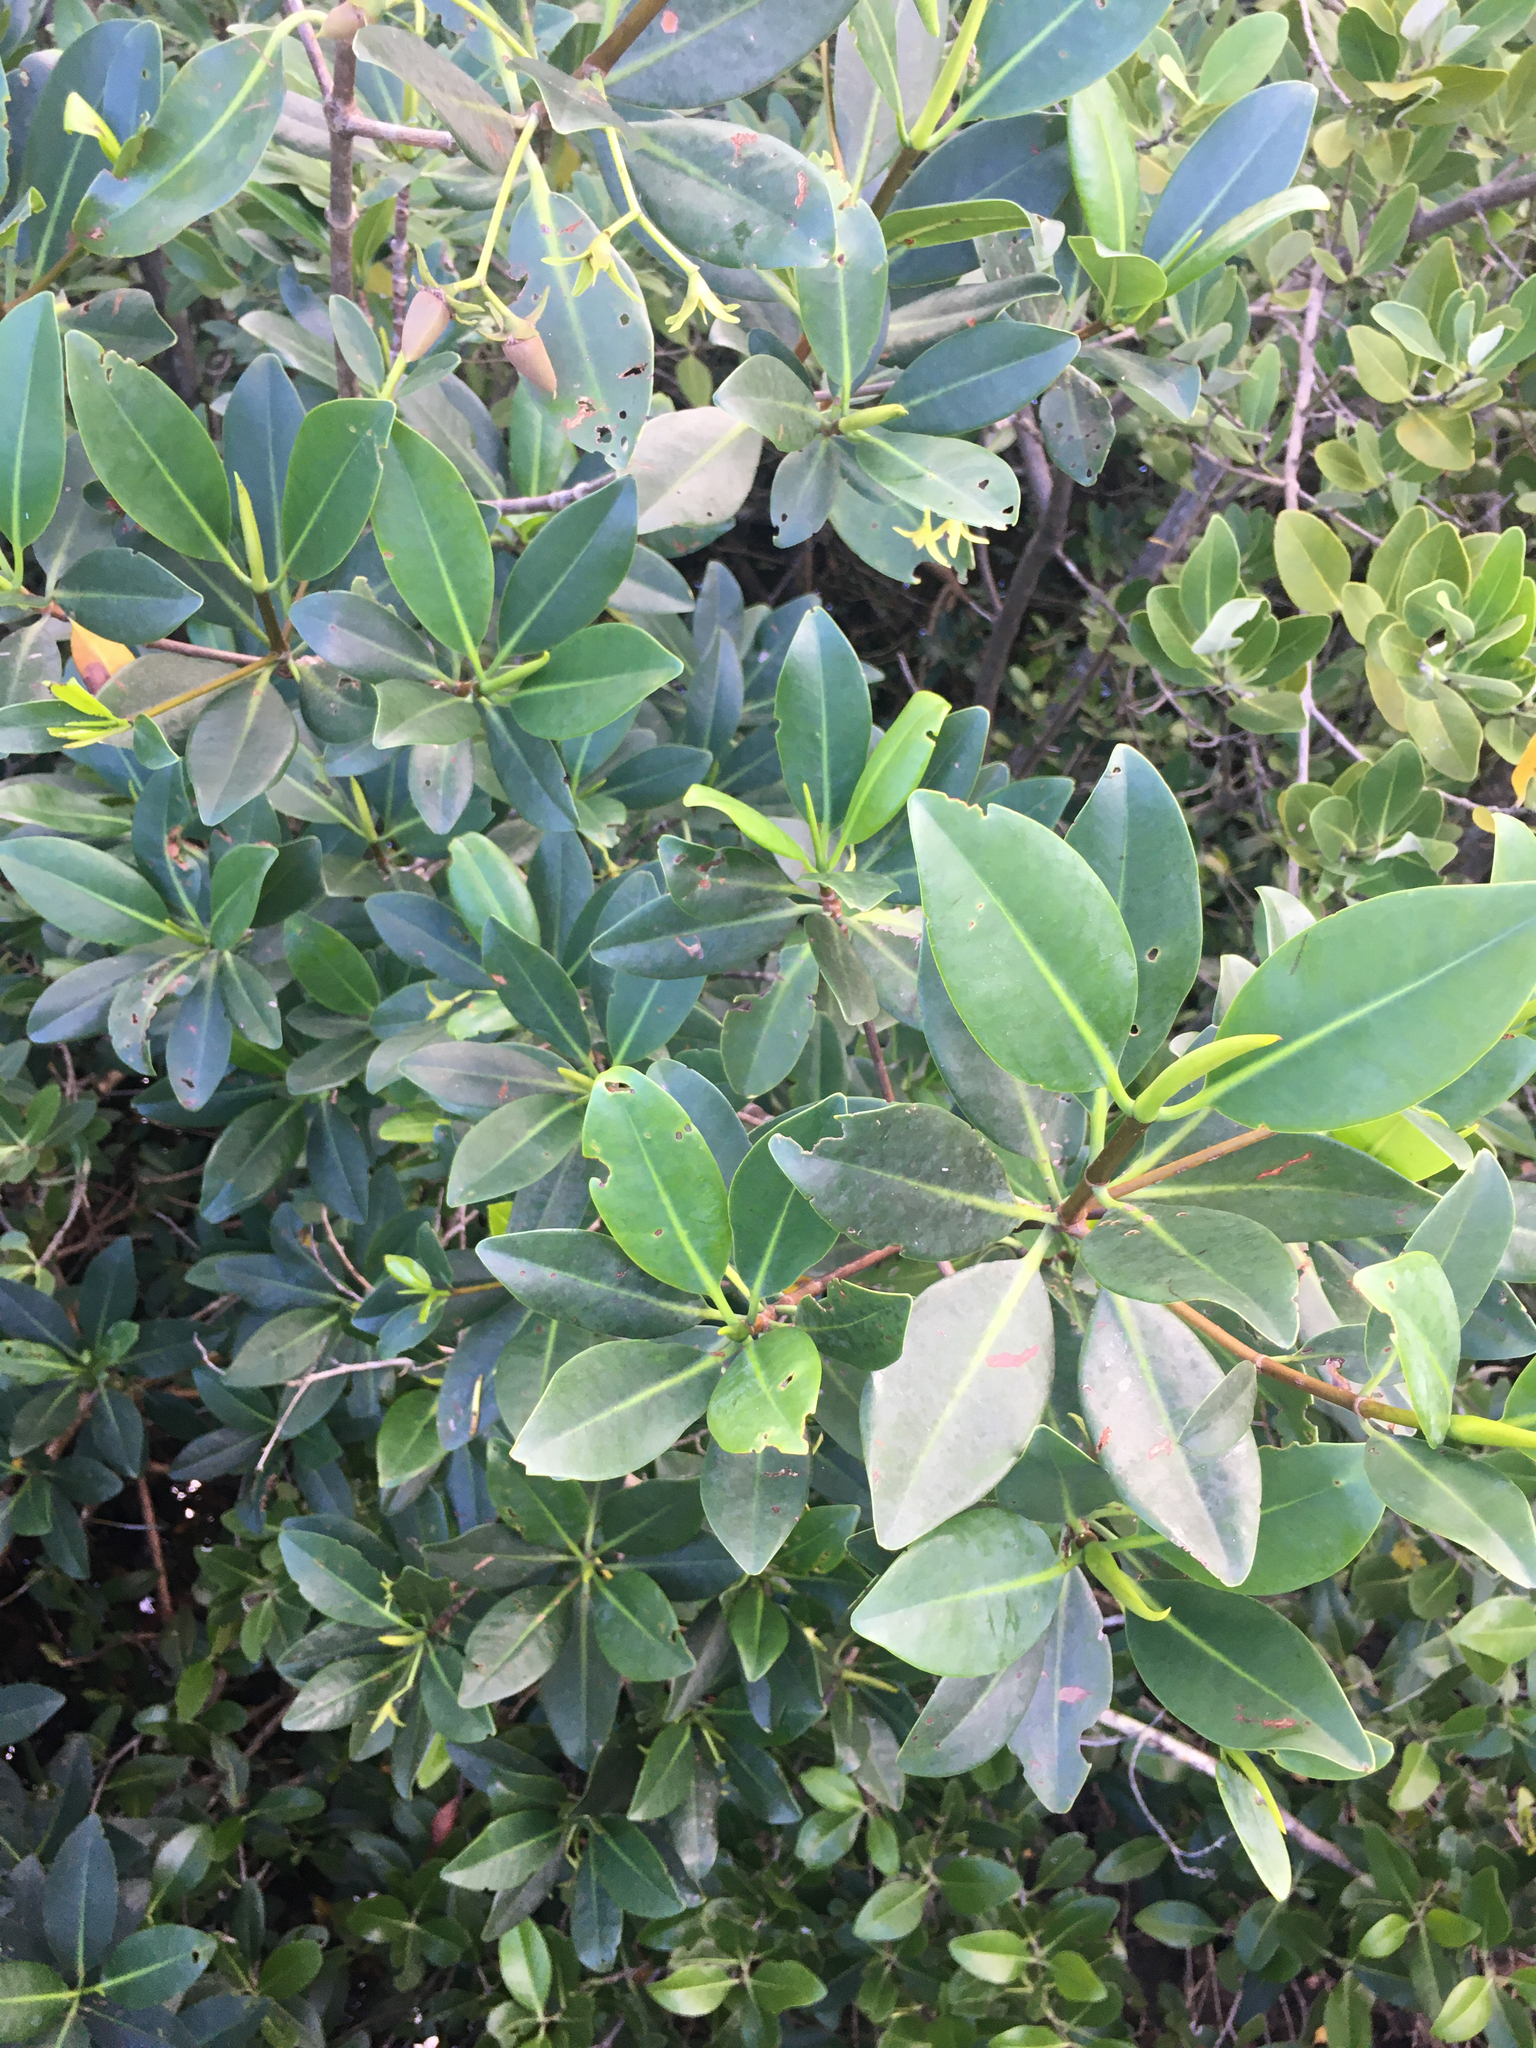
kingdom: Plantae
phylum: Tracheophyta
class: Magnoliopsida
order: Malpighiales
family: Rhizophoraceae
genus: Rhizophora
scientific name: Rhizophora mangle
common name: Red mangrove
